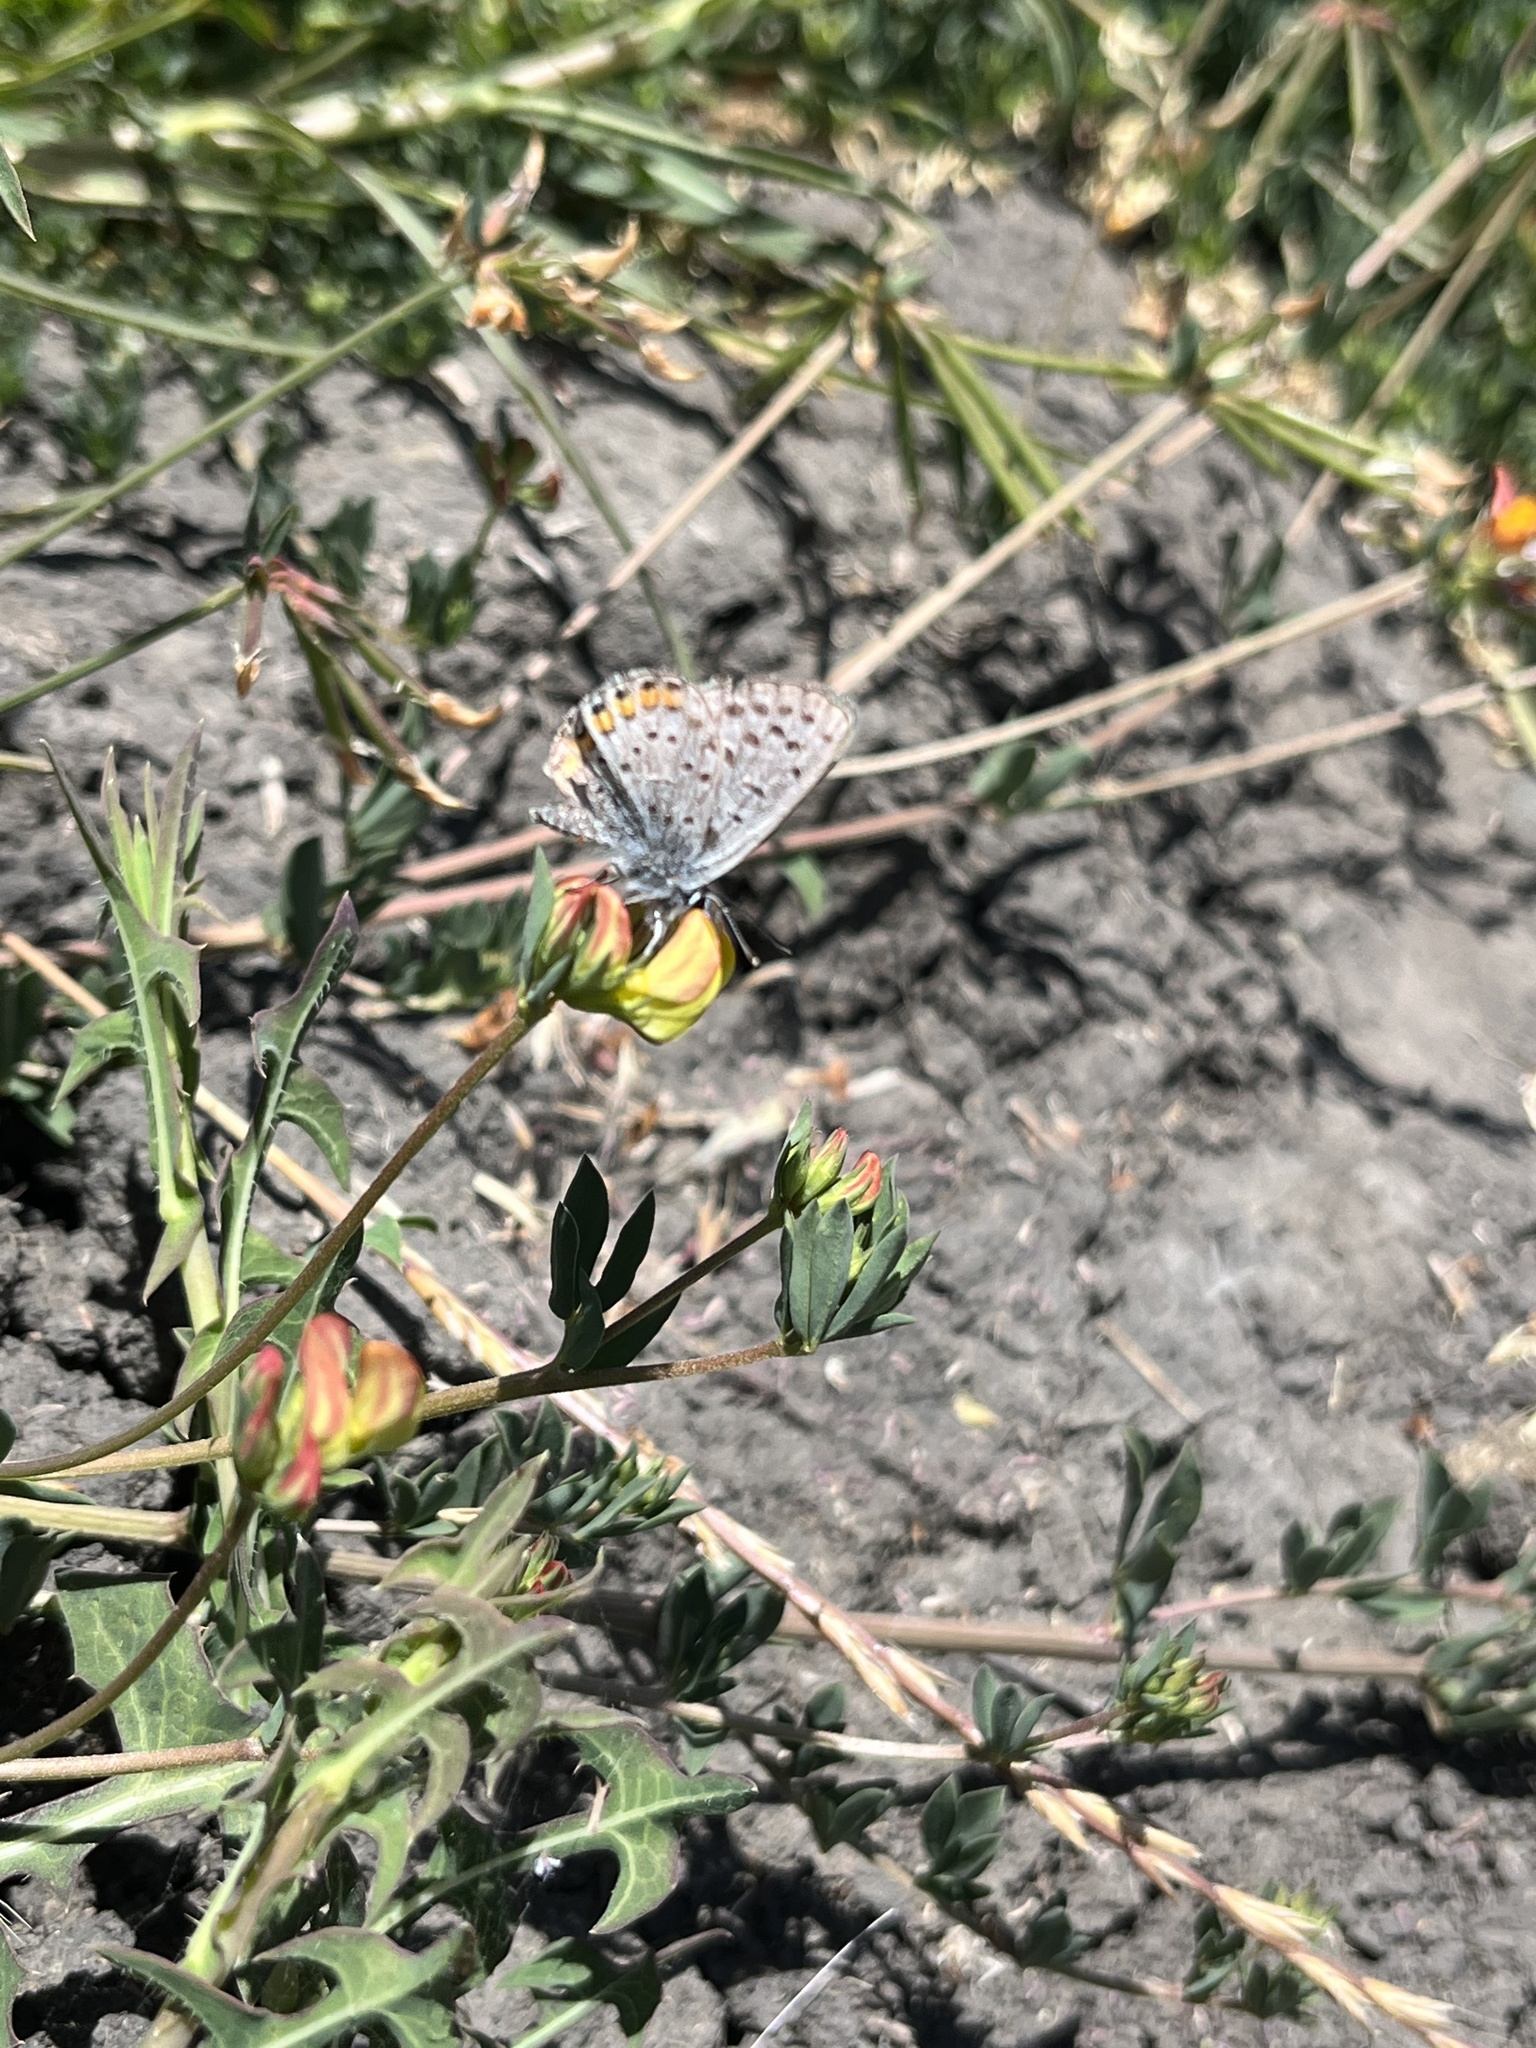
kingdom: Animalia
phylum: Arthropoda
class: Insecta
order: Lepidoptera
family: Lycaenidae
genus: Icaricia
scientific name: Icaricia acmon
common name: Acmon blue
